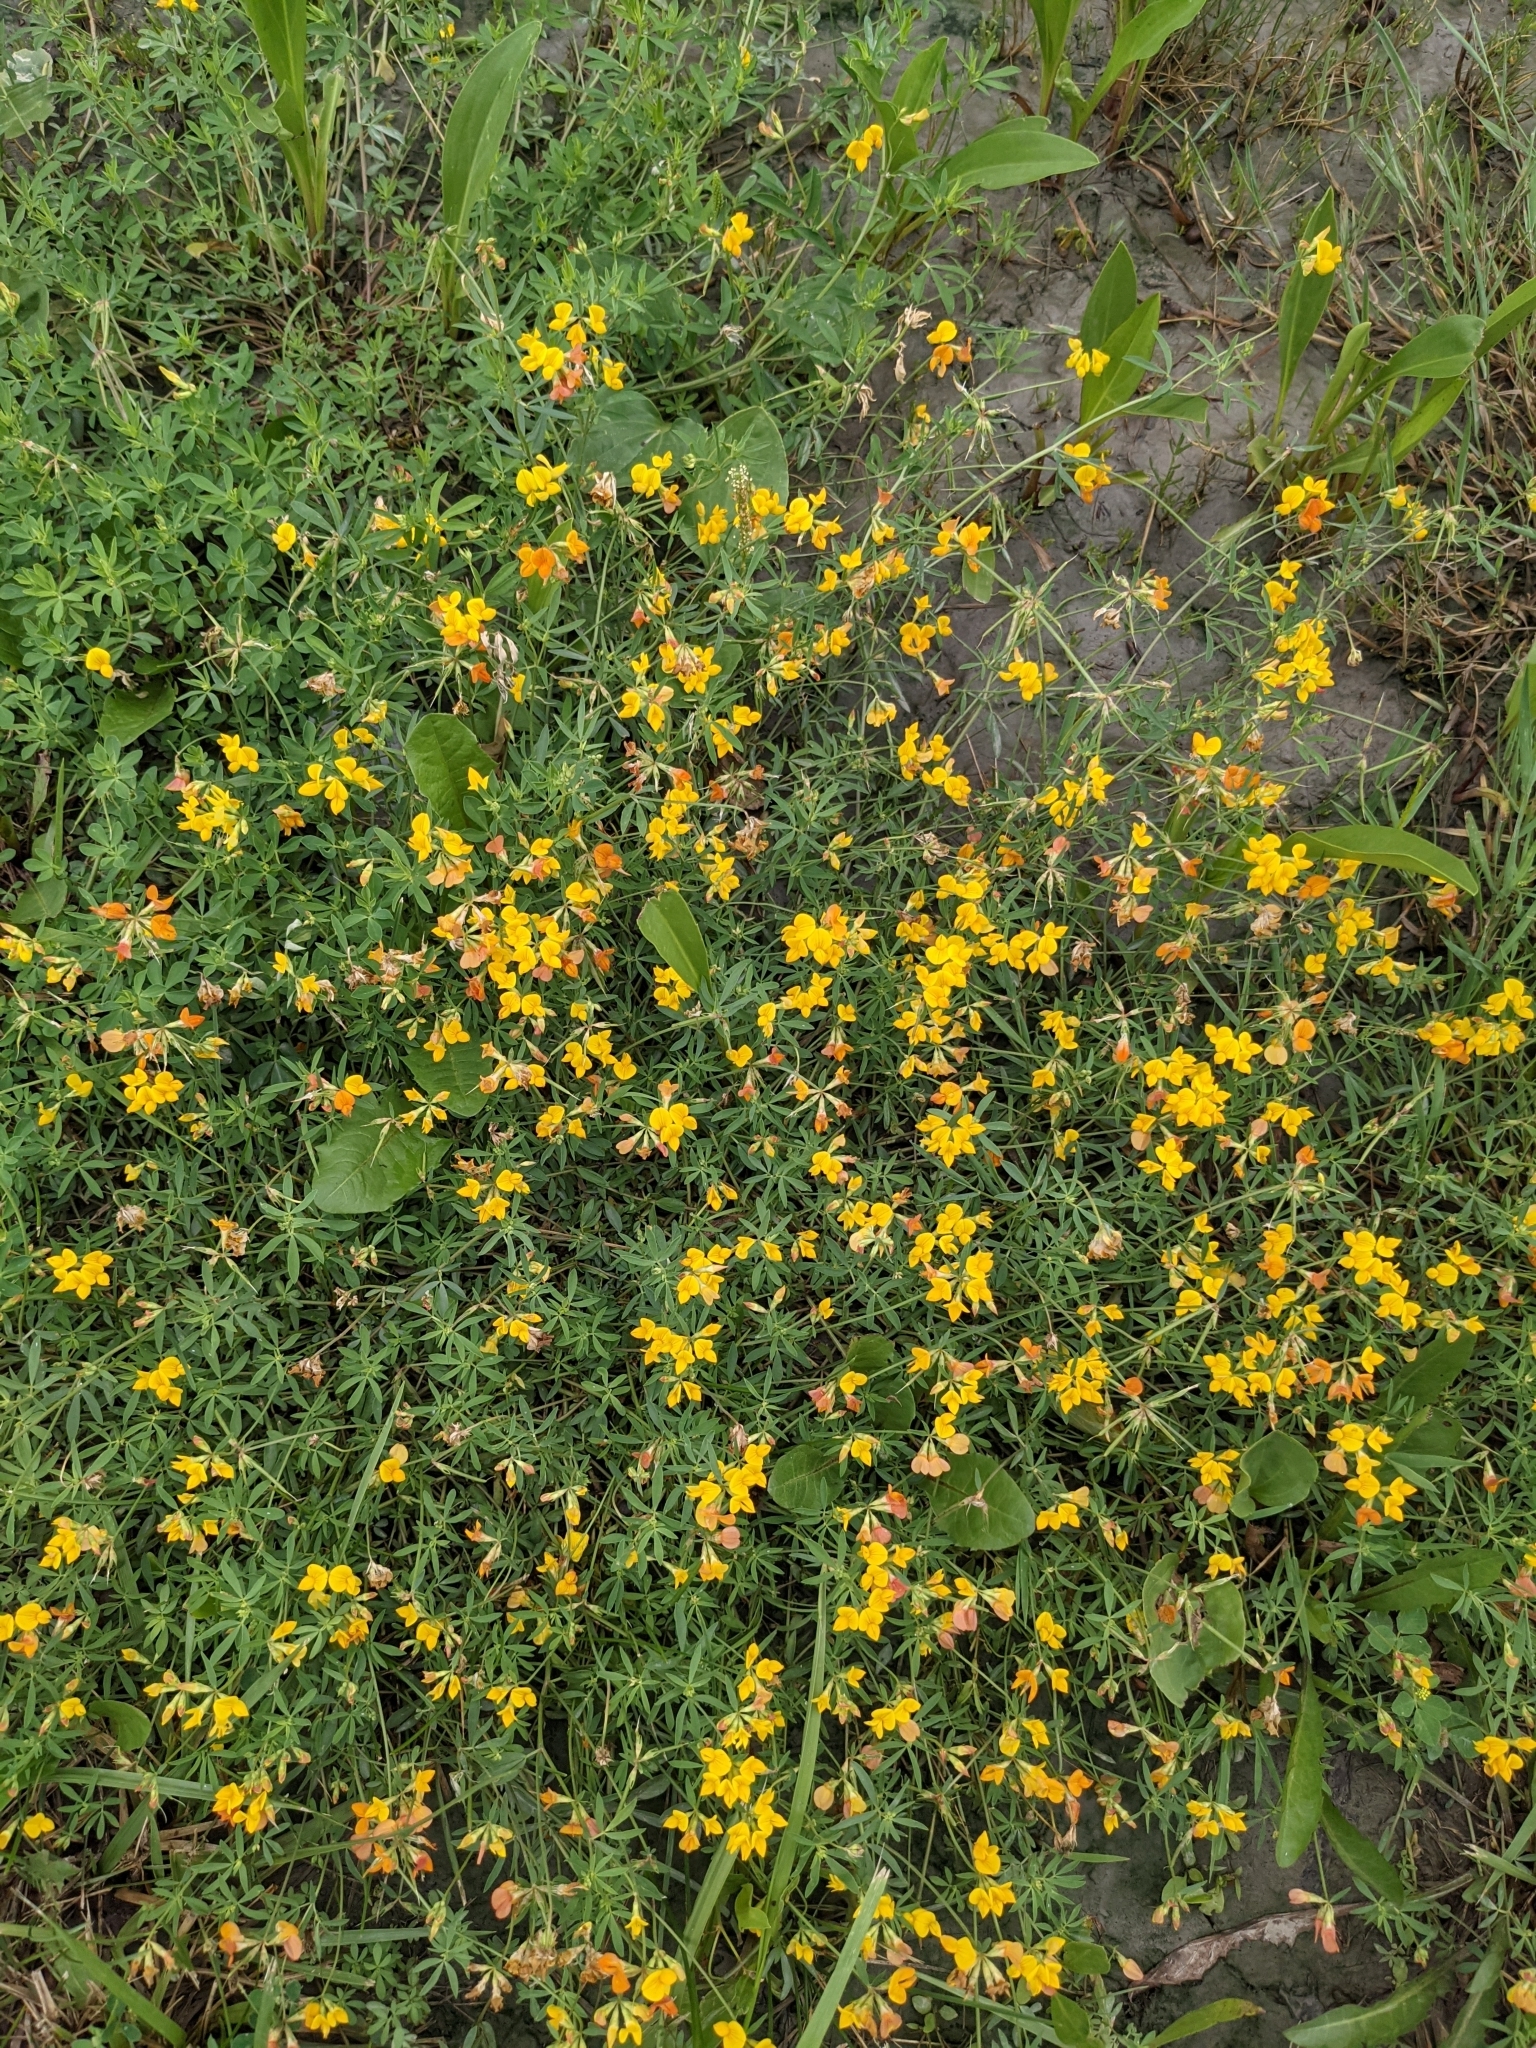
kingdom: Plantae
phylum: Tracheophyta
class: Magnoliopsida
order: Fabales
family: Fabaceae
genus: Lotus
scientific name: Lotus corniculatus
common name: Common bird's-foot-trefoil
